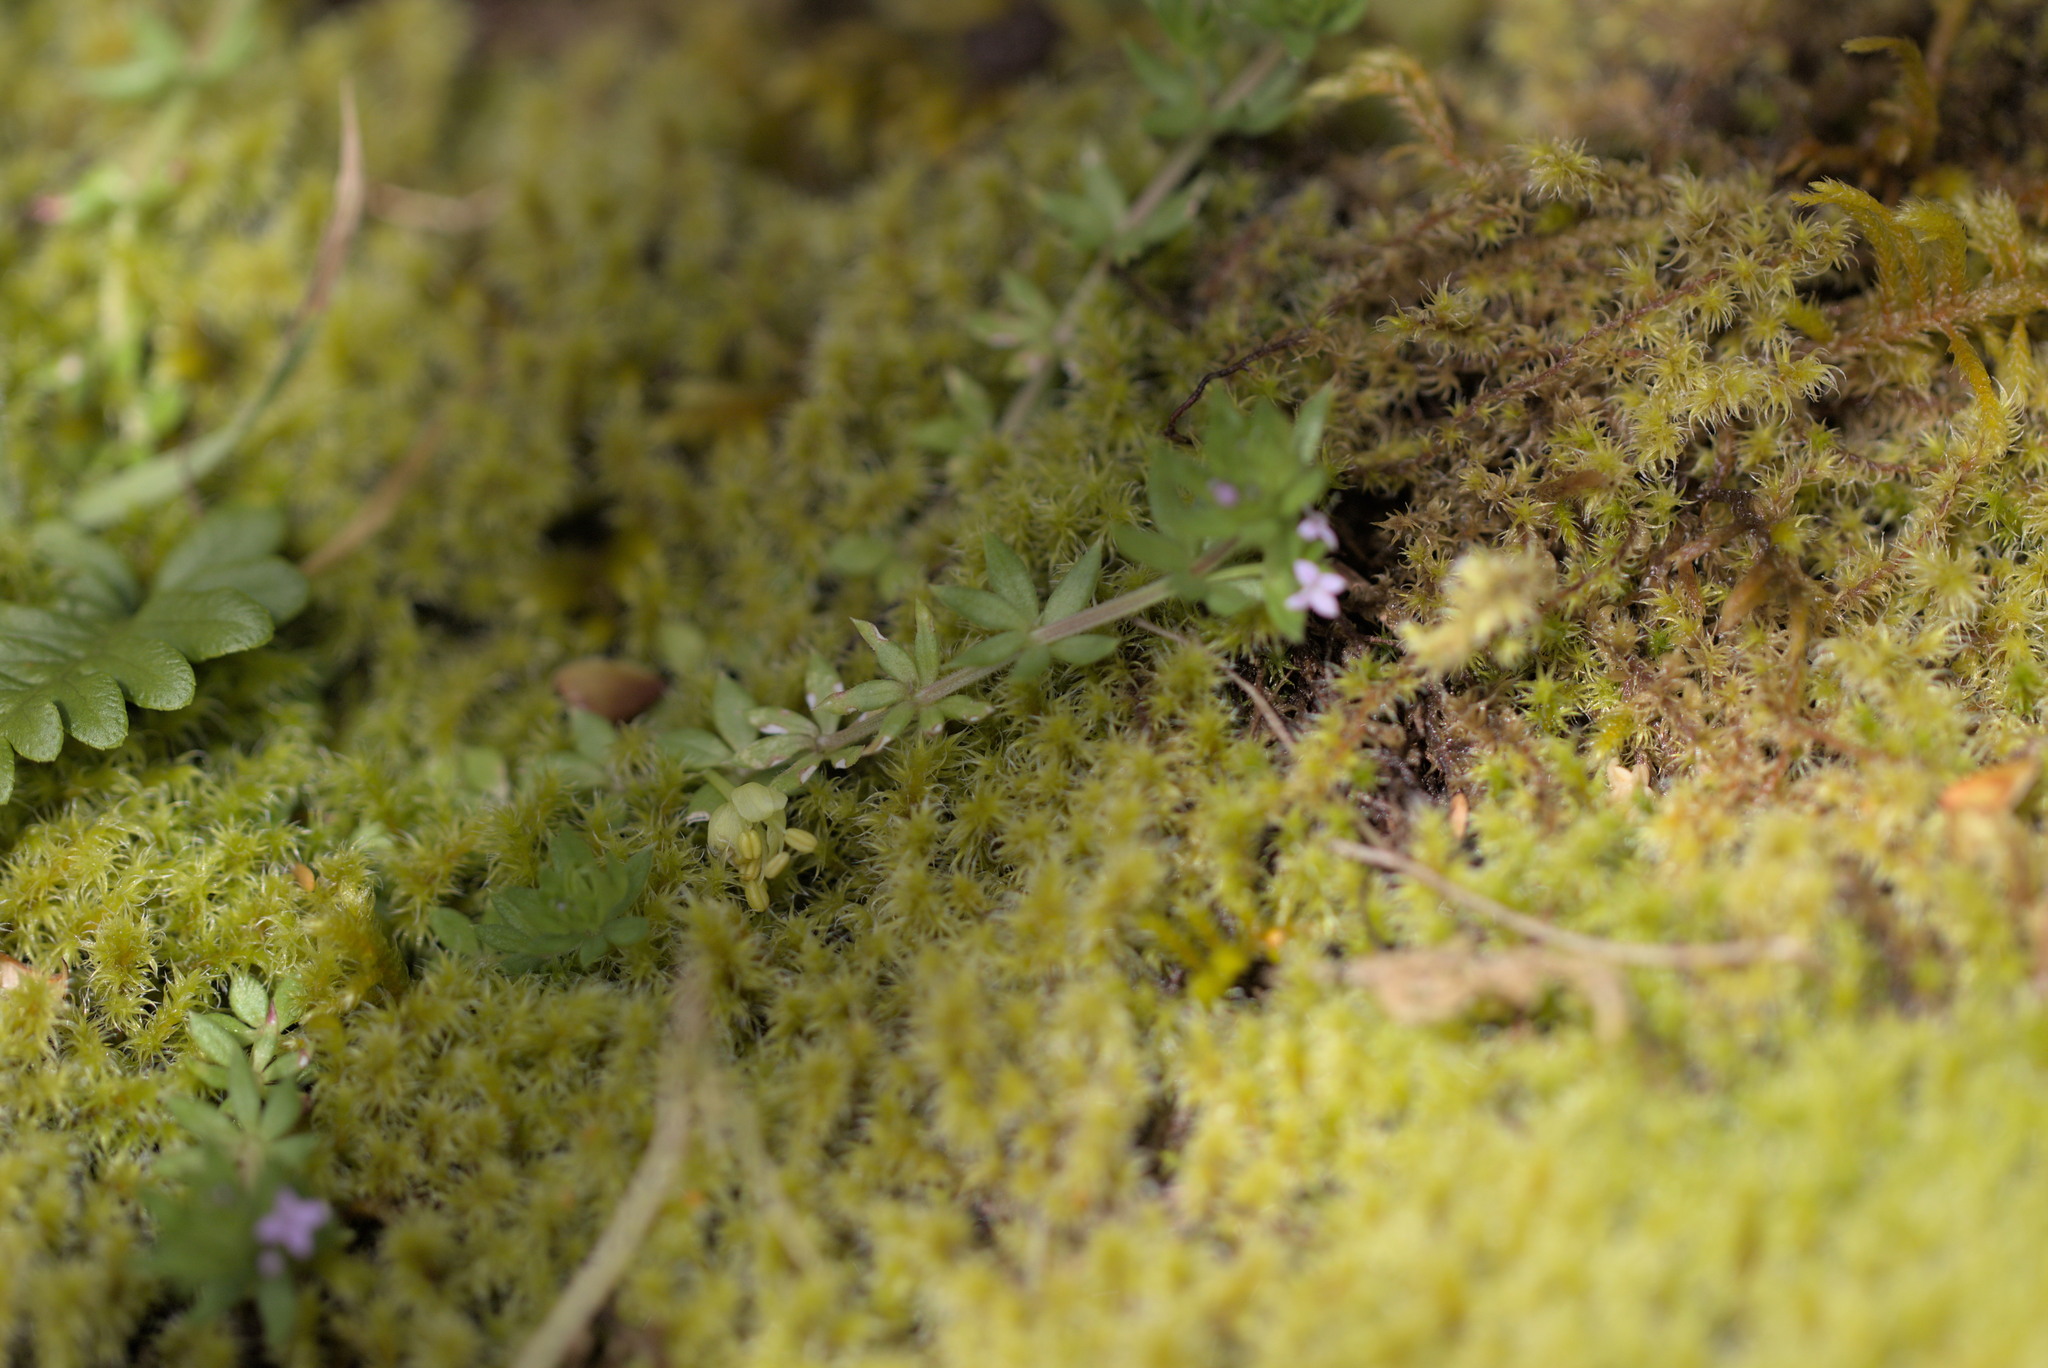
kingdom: Plantae
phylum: Tracheophyta
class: Magnoliopsida
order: Gentianales
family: Rubiaceae
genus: Sherardia
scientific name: Sherardia arvensis
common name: Field madder
